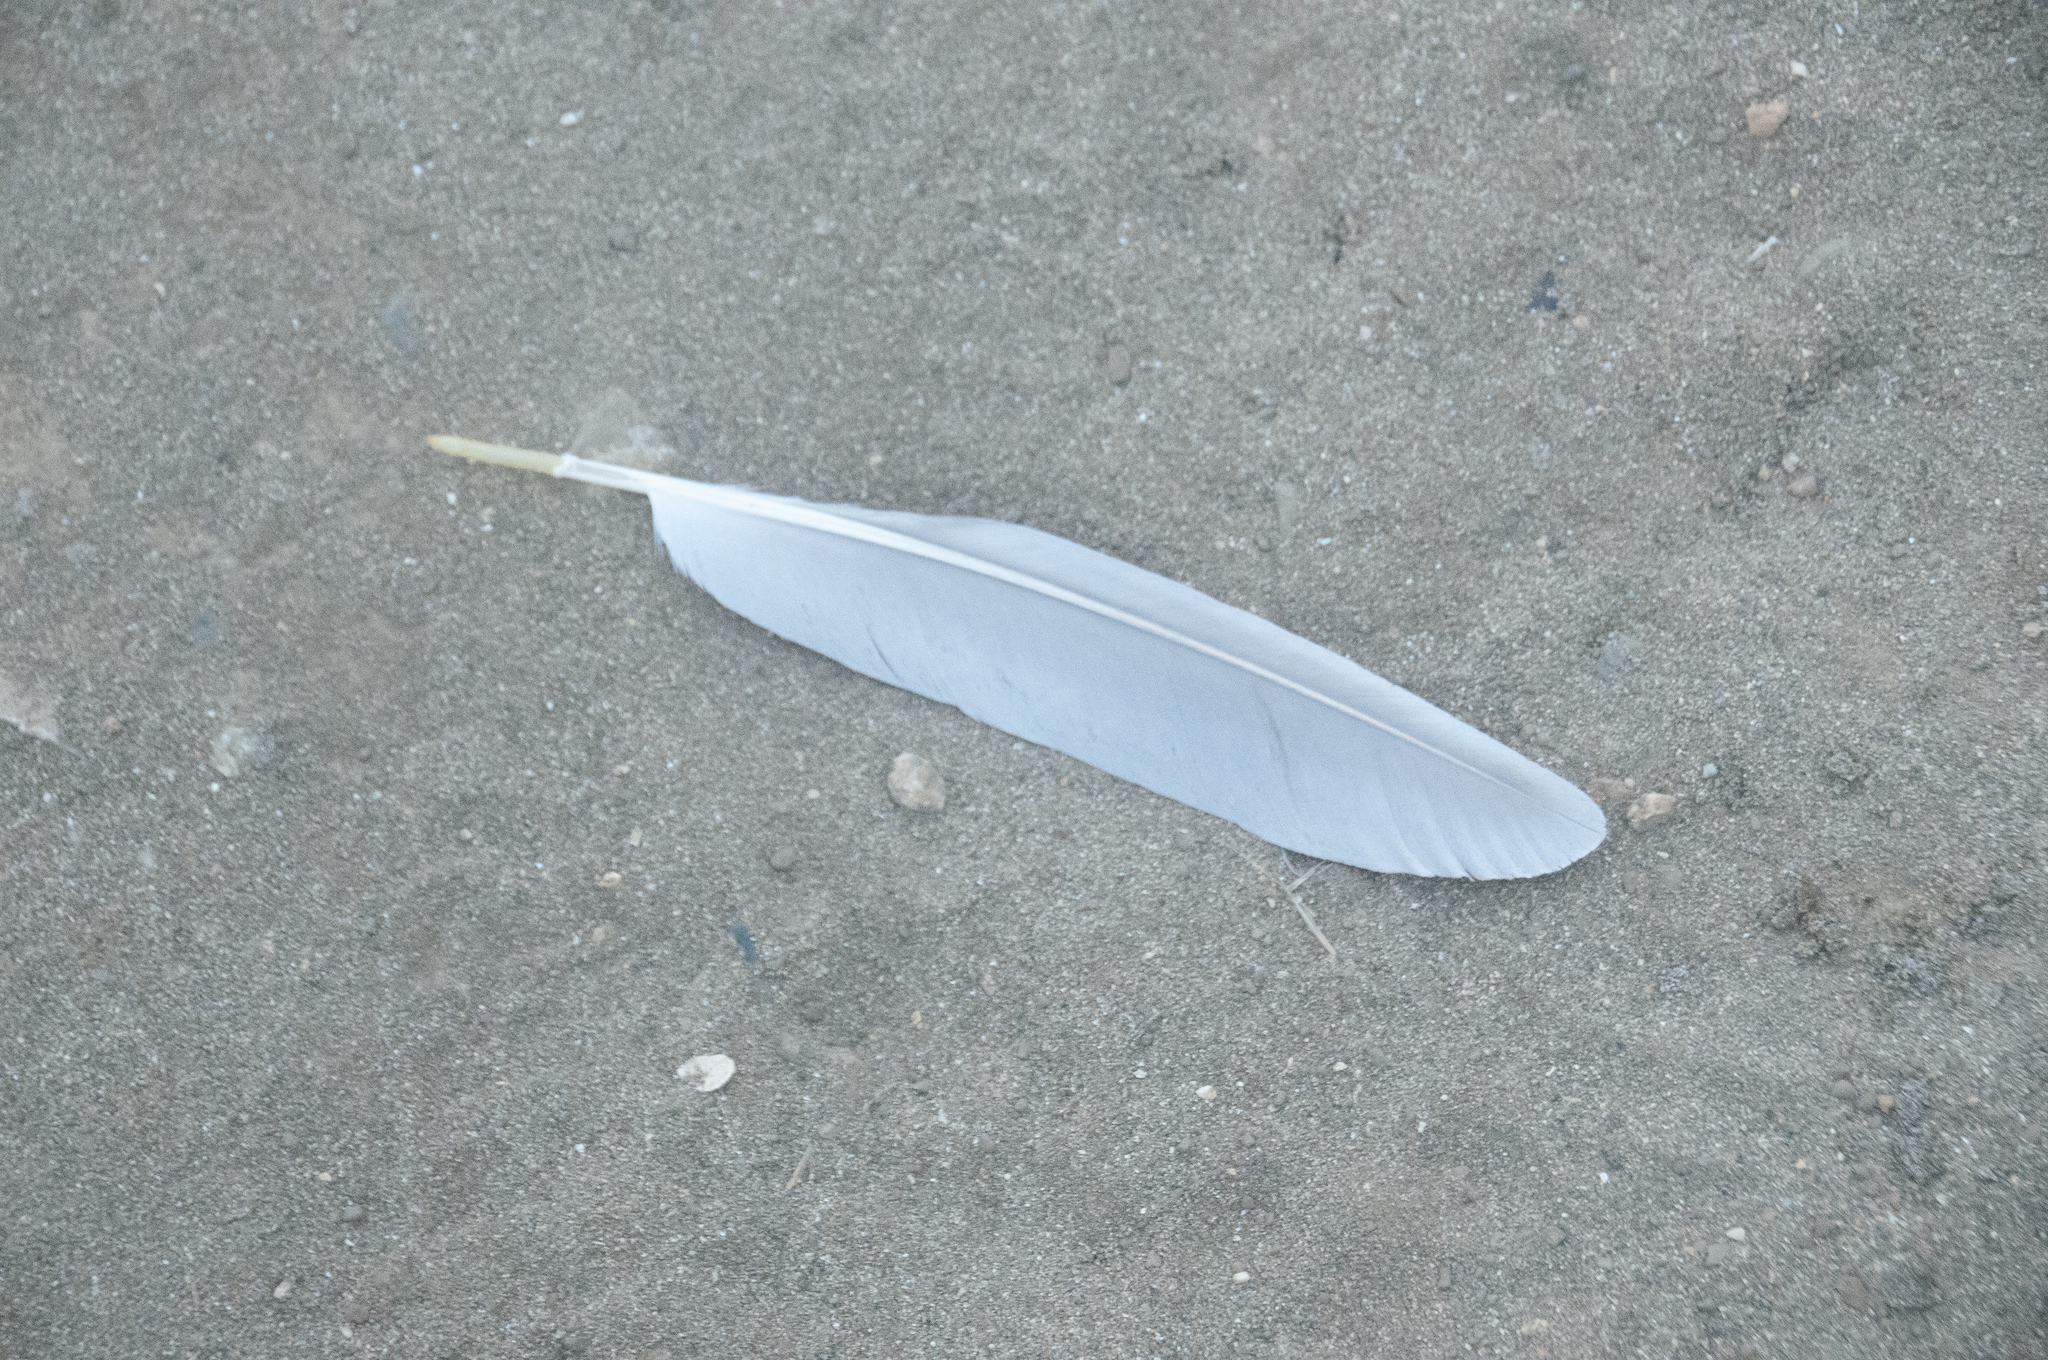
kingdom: Animalia
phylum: Chordata
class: Aves
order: Pelecaniformes
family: Ardeidae
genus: Ardea
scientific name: Ardea herodias
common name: Great blue heron
